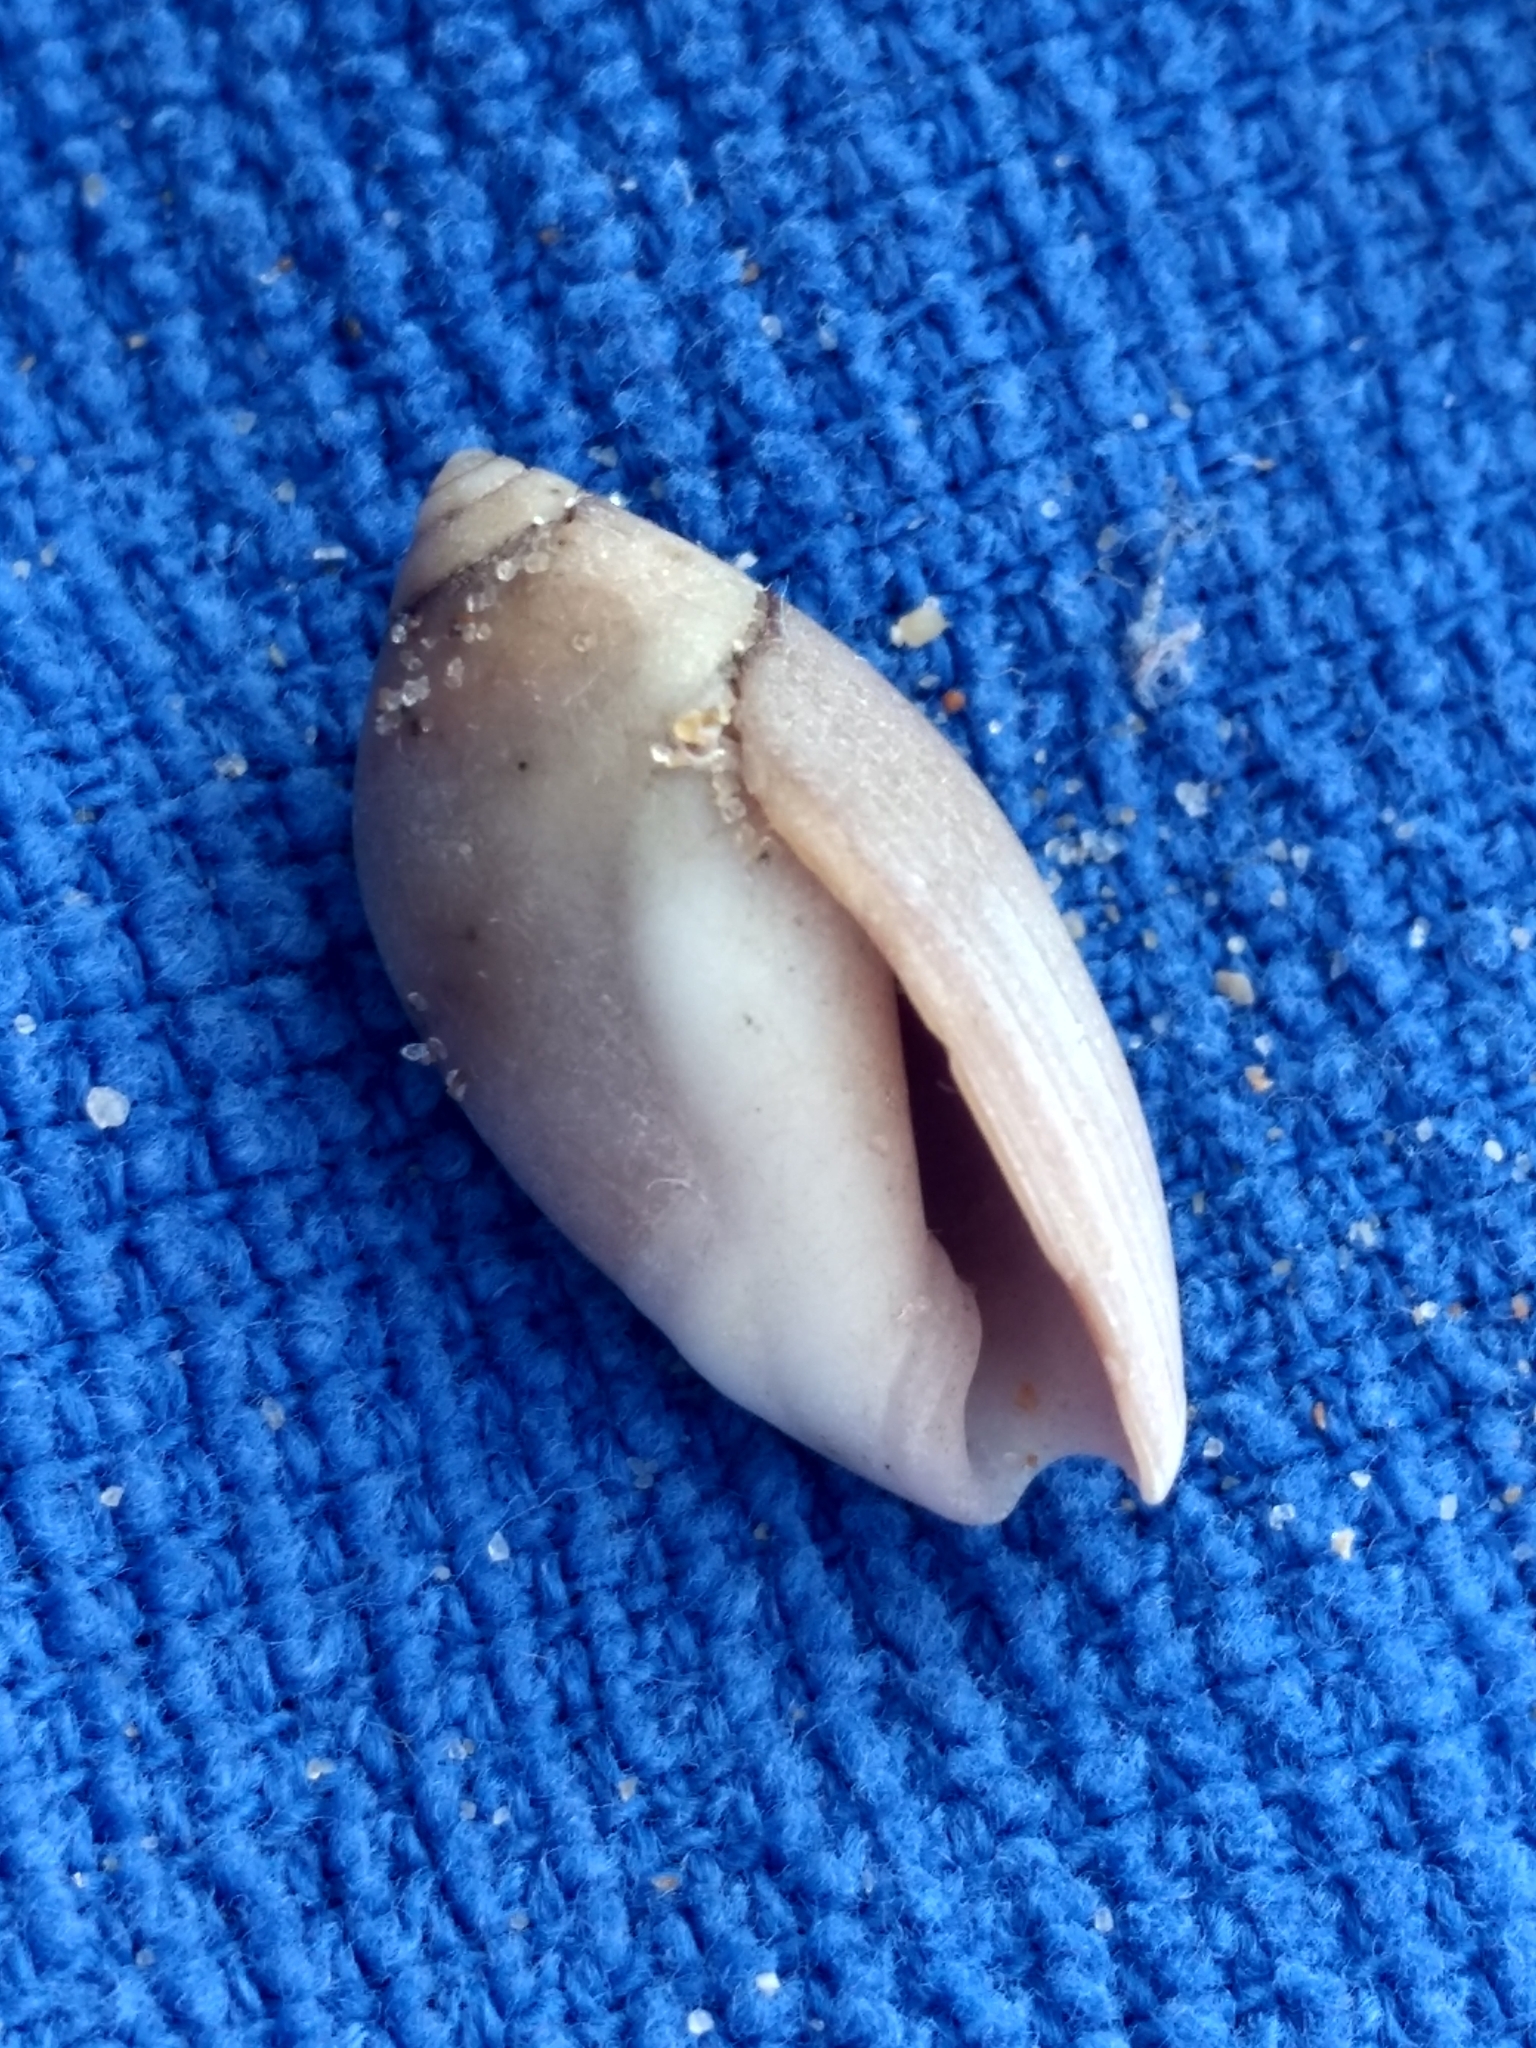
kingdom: Animalia
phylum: Mollusca
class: Gastropoda
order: Neogastropoda
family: Olividae
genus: Callianax
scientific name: Callianax biplicata
